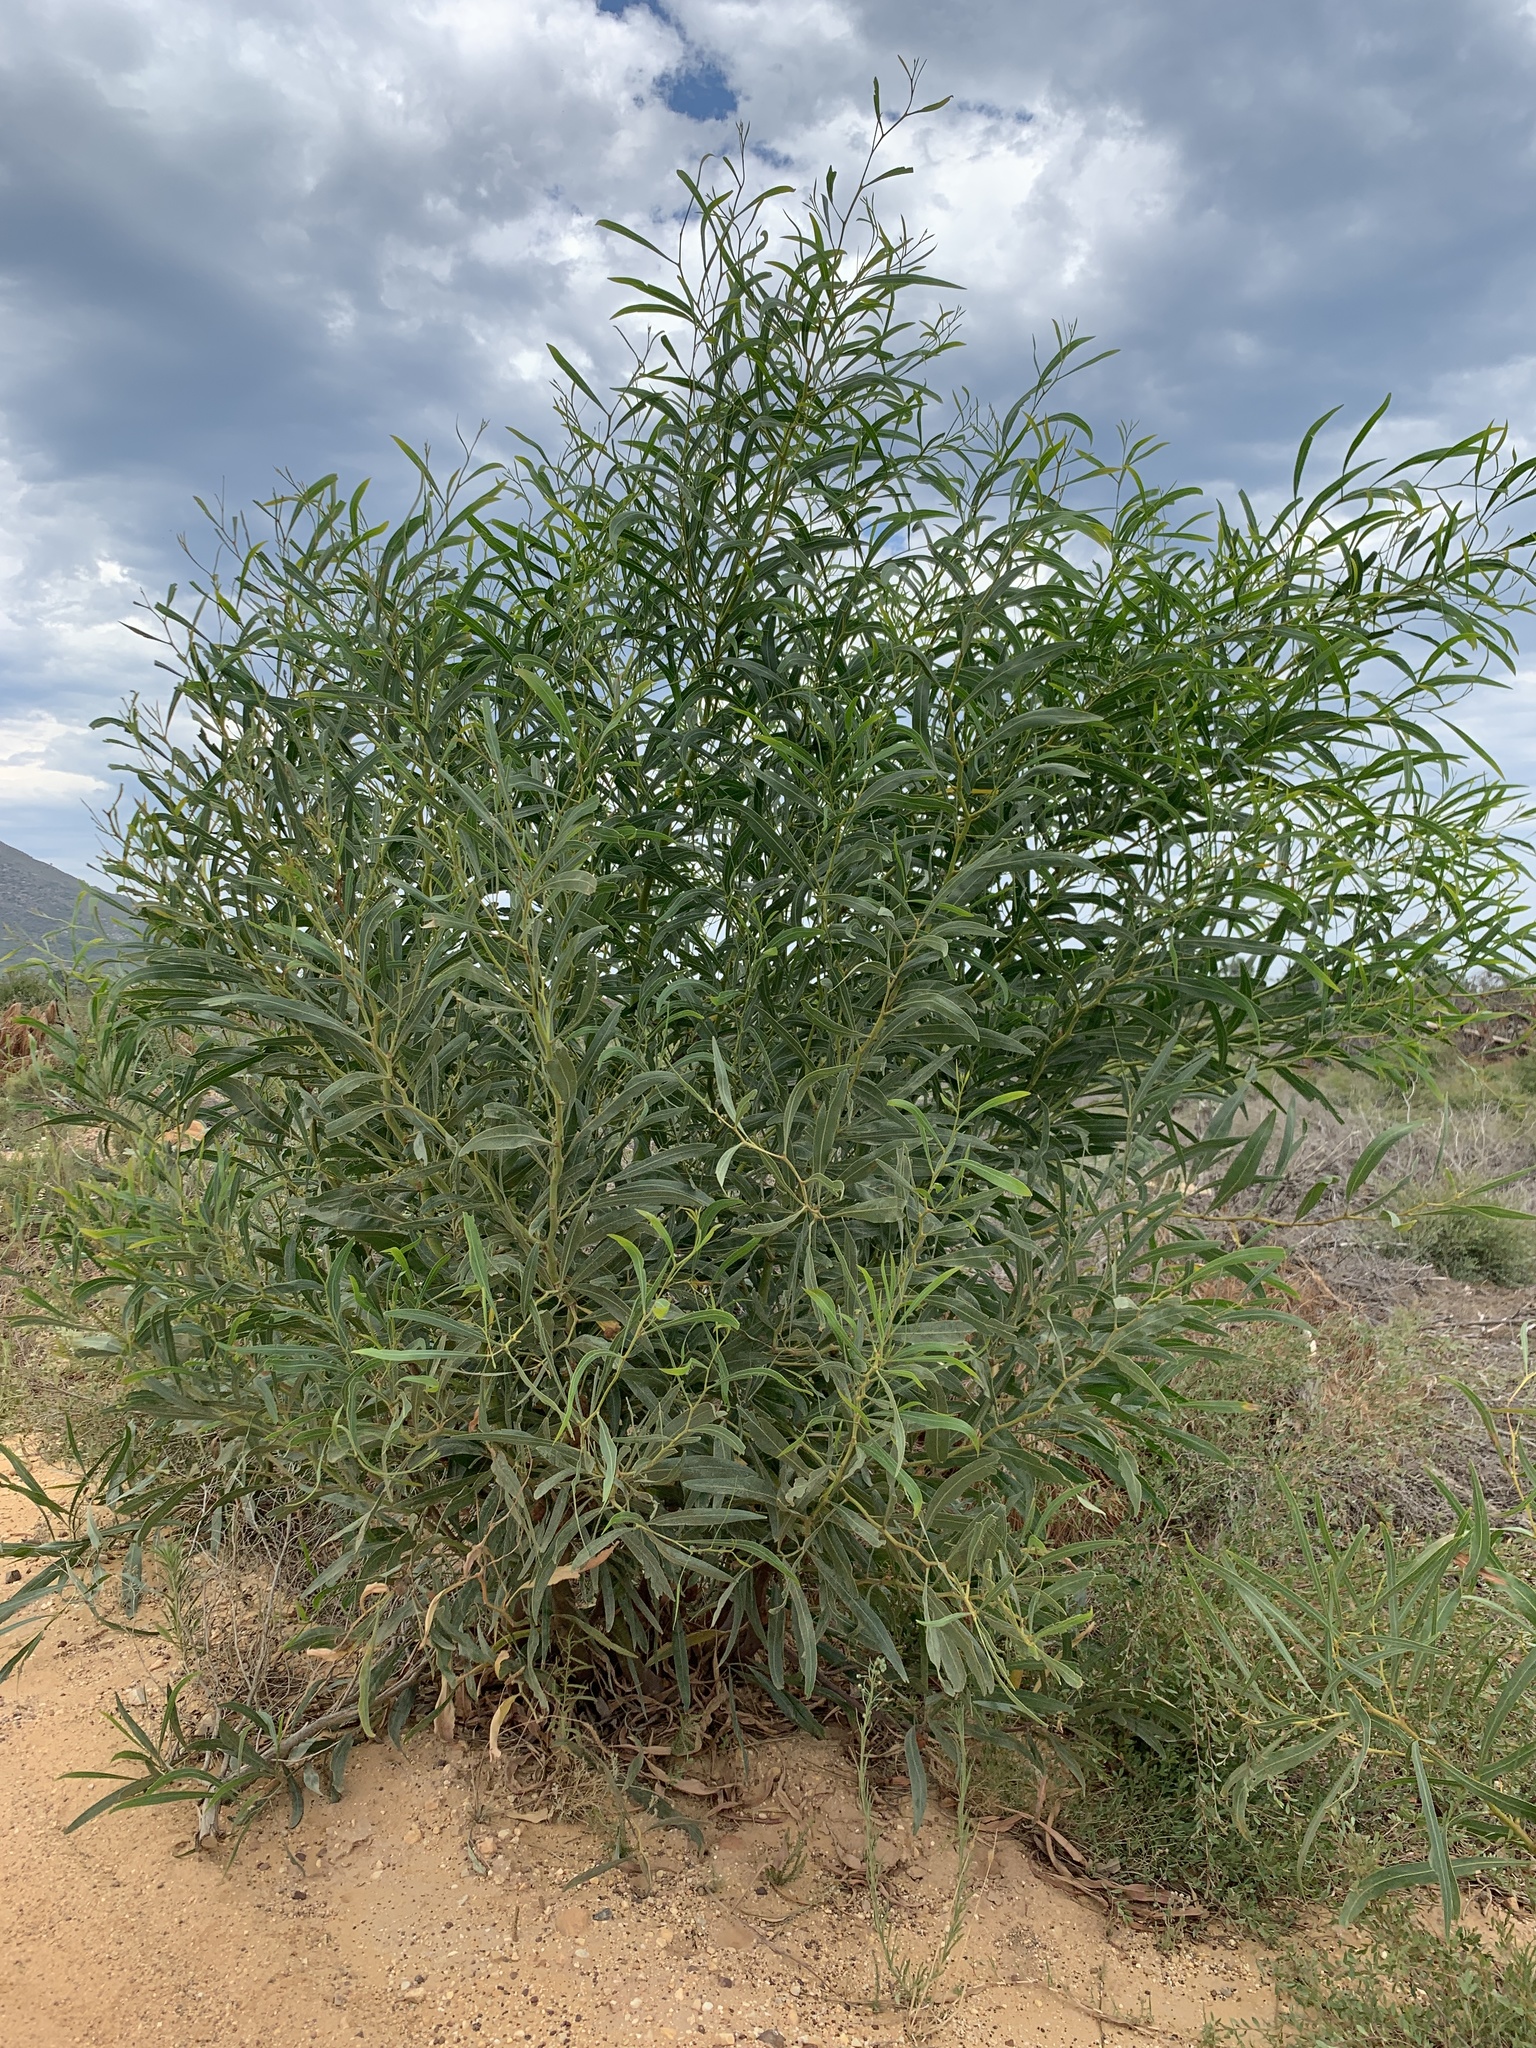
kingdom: Plantae
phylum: Tracheophyta
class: Magnoliopsida
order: Fabales
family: Fabaceae
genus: Acacia
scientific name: Acacia saligna
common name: Orange wattle
